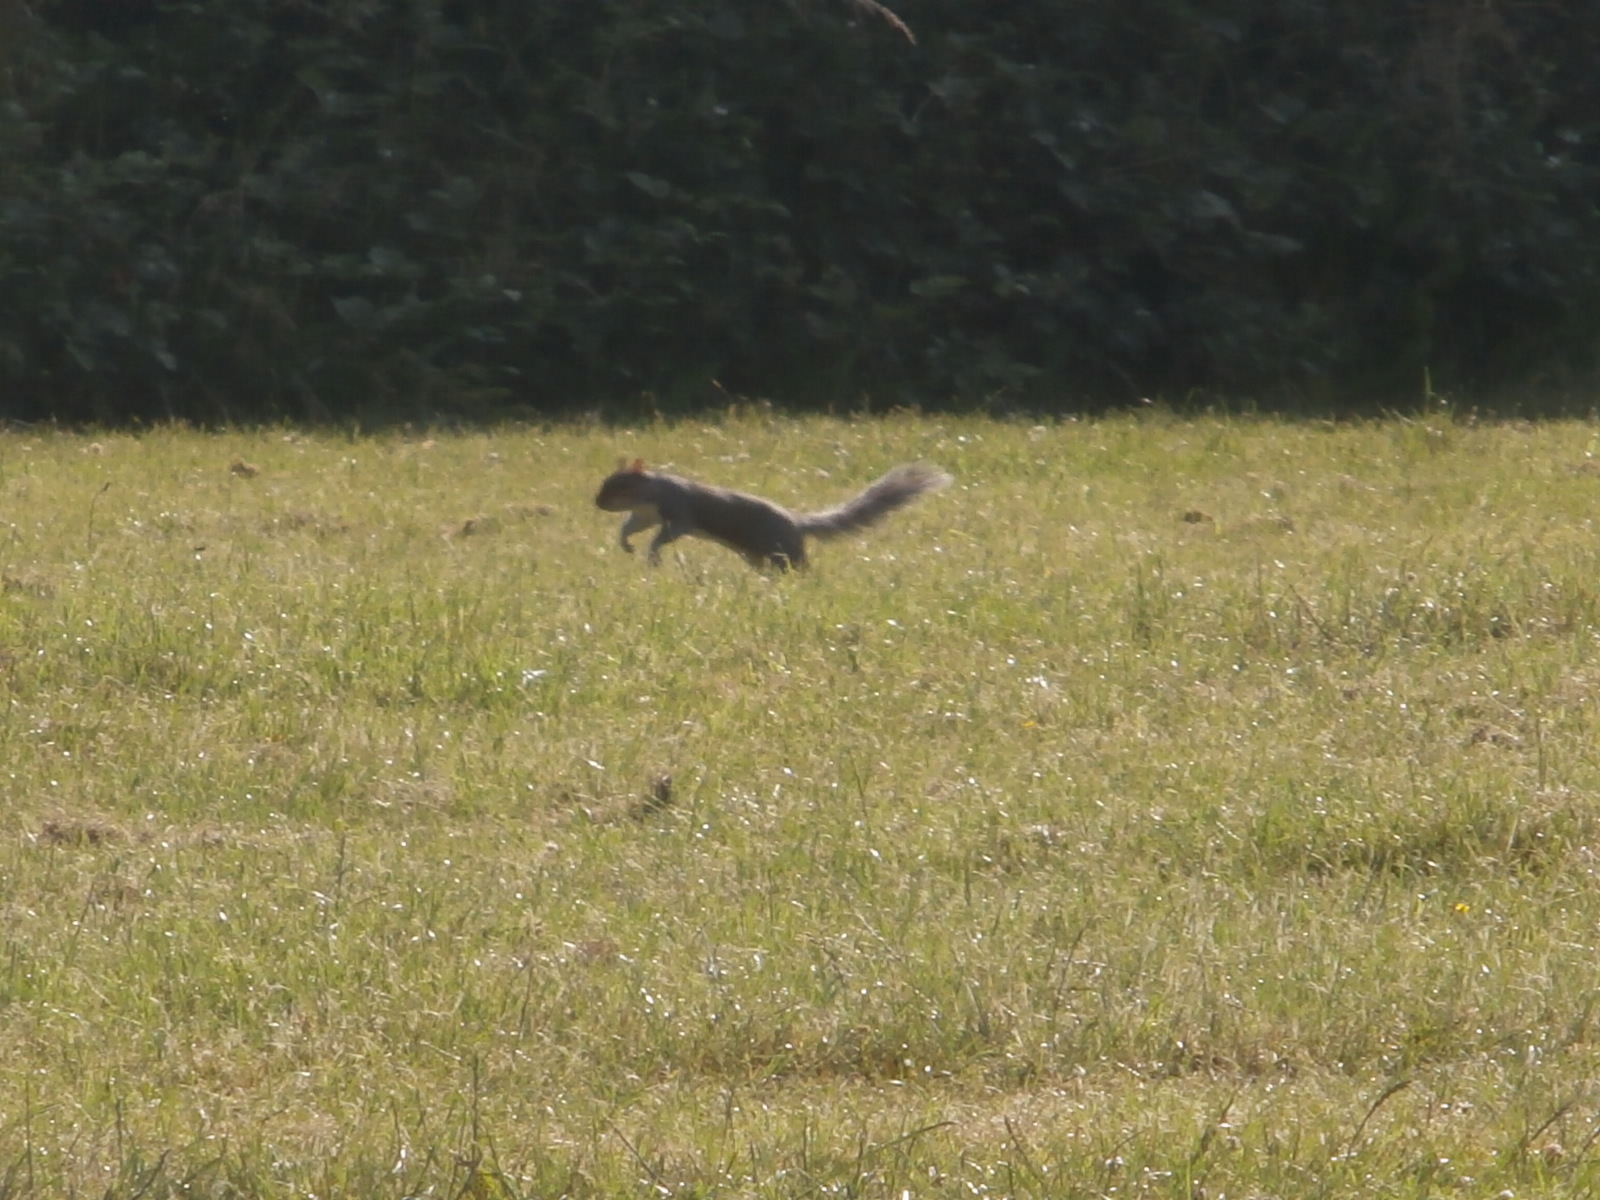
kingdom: Animalia
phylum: Chordata
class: Mammalia
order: Rodentia
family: Sciuridae
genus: Sciurus
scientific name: Sciurus carolinensis
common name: Eastern gray squirrel
